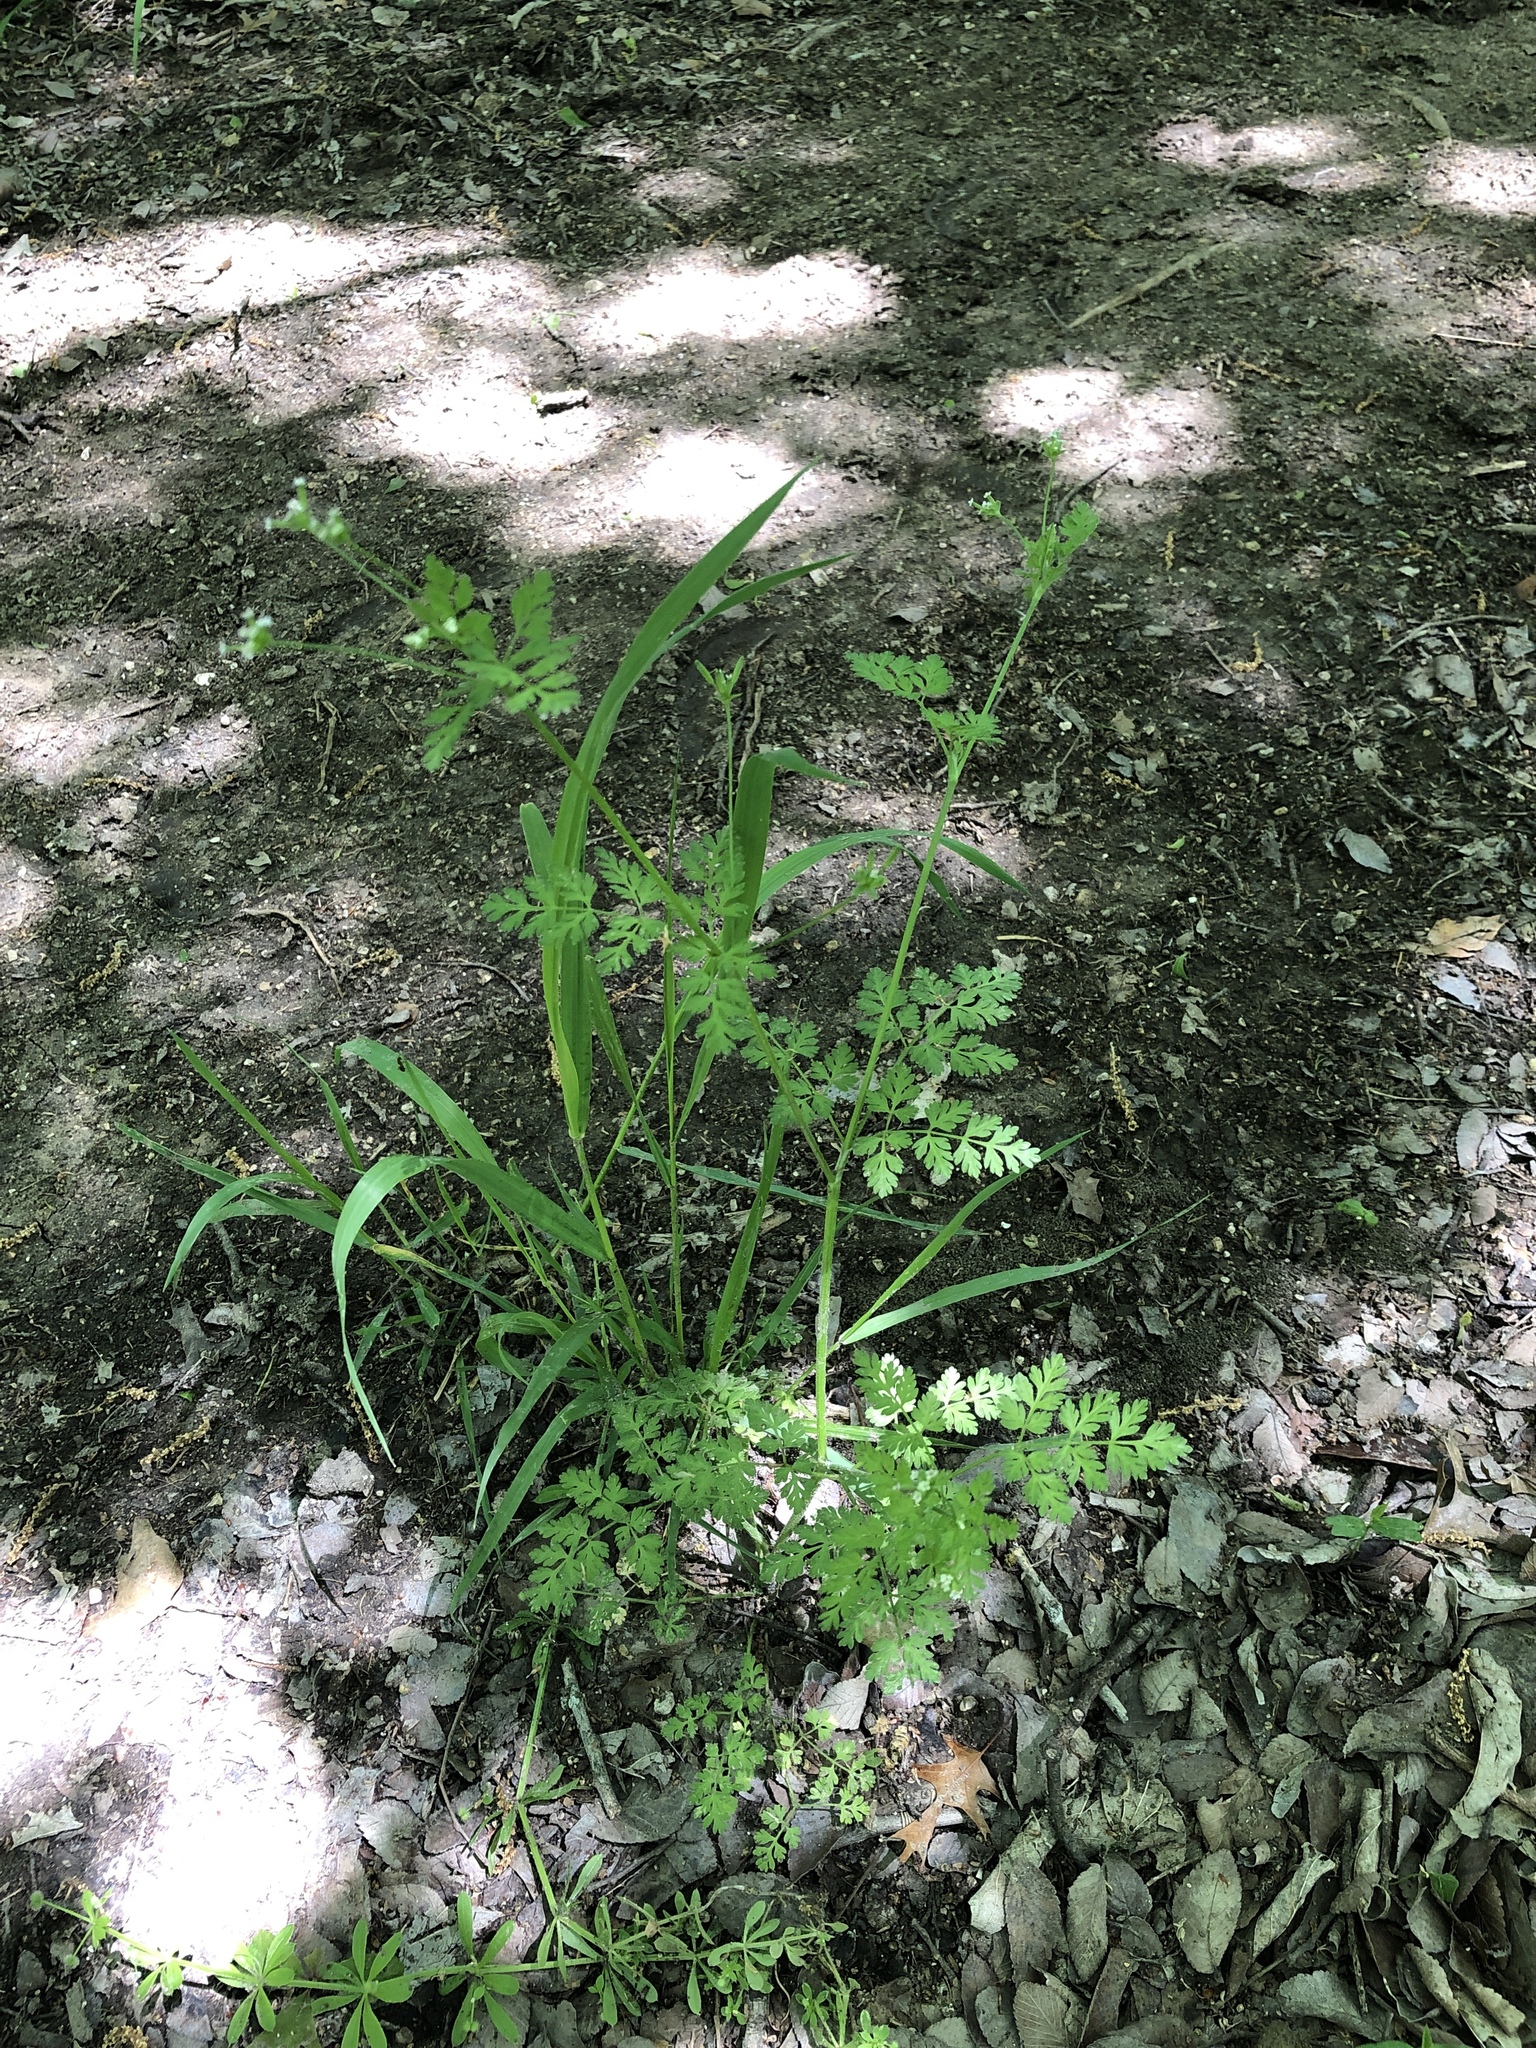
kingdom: Plantae
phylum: Tracheophyta
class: Magnoliopsida
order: Apiales
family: Apiaceae
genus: Chaerophyllum
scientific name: Chaerophyllum tainturieri
